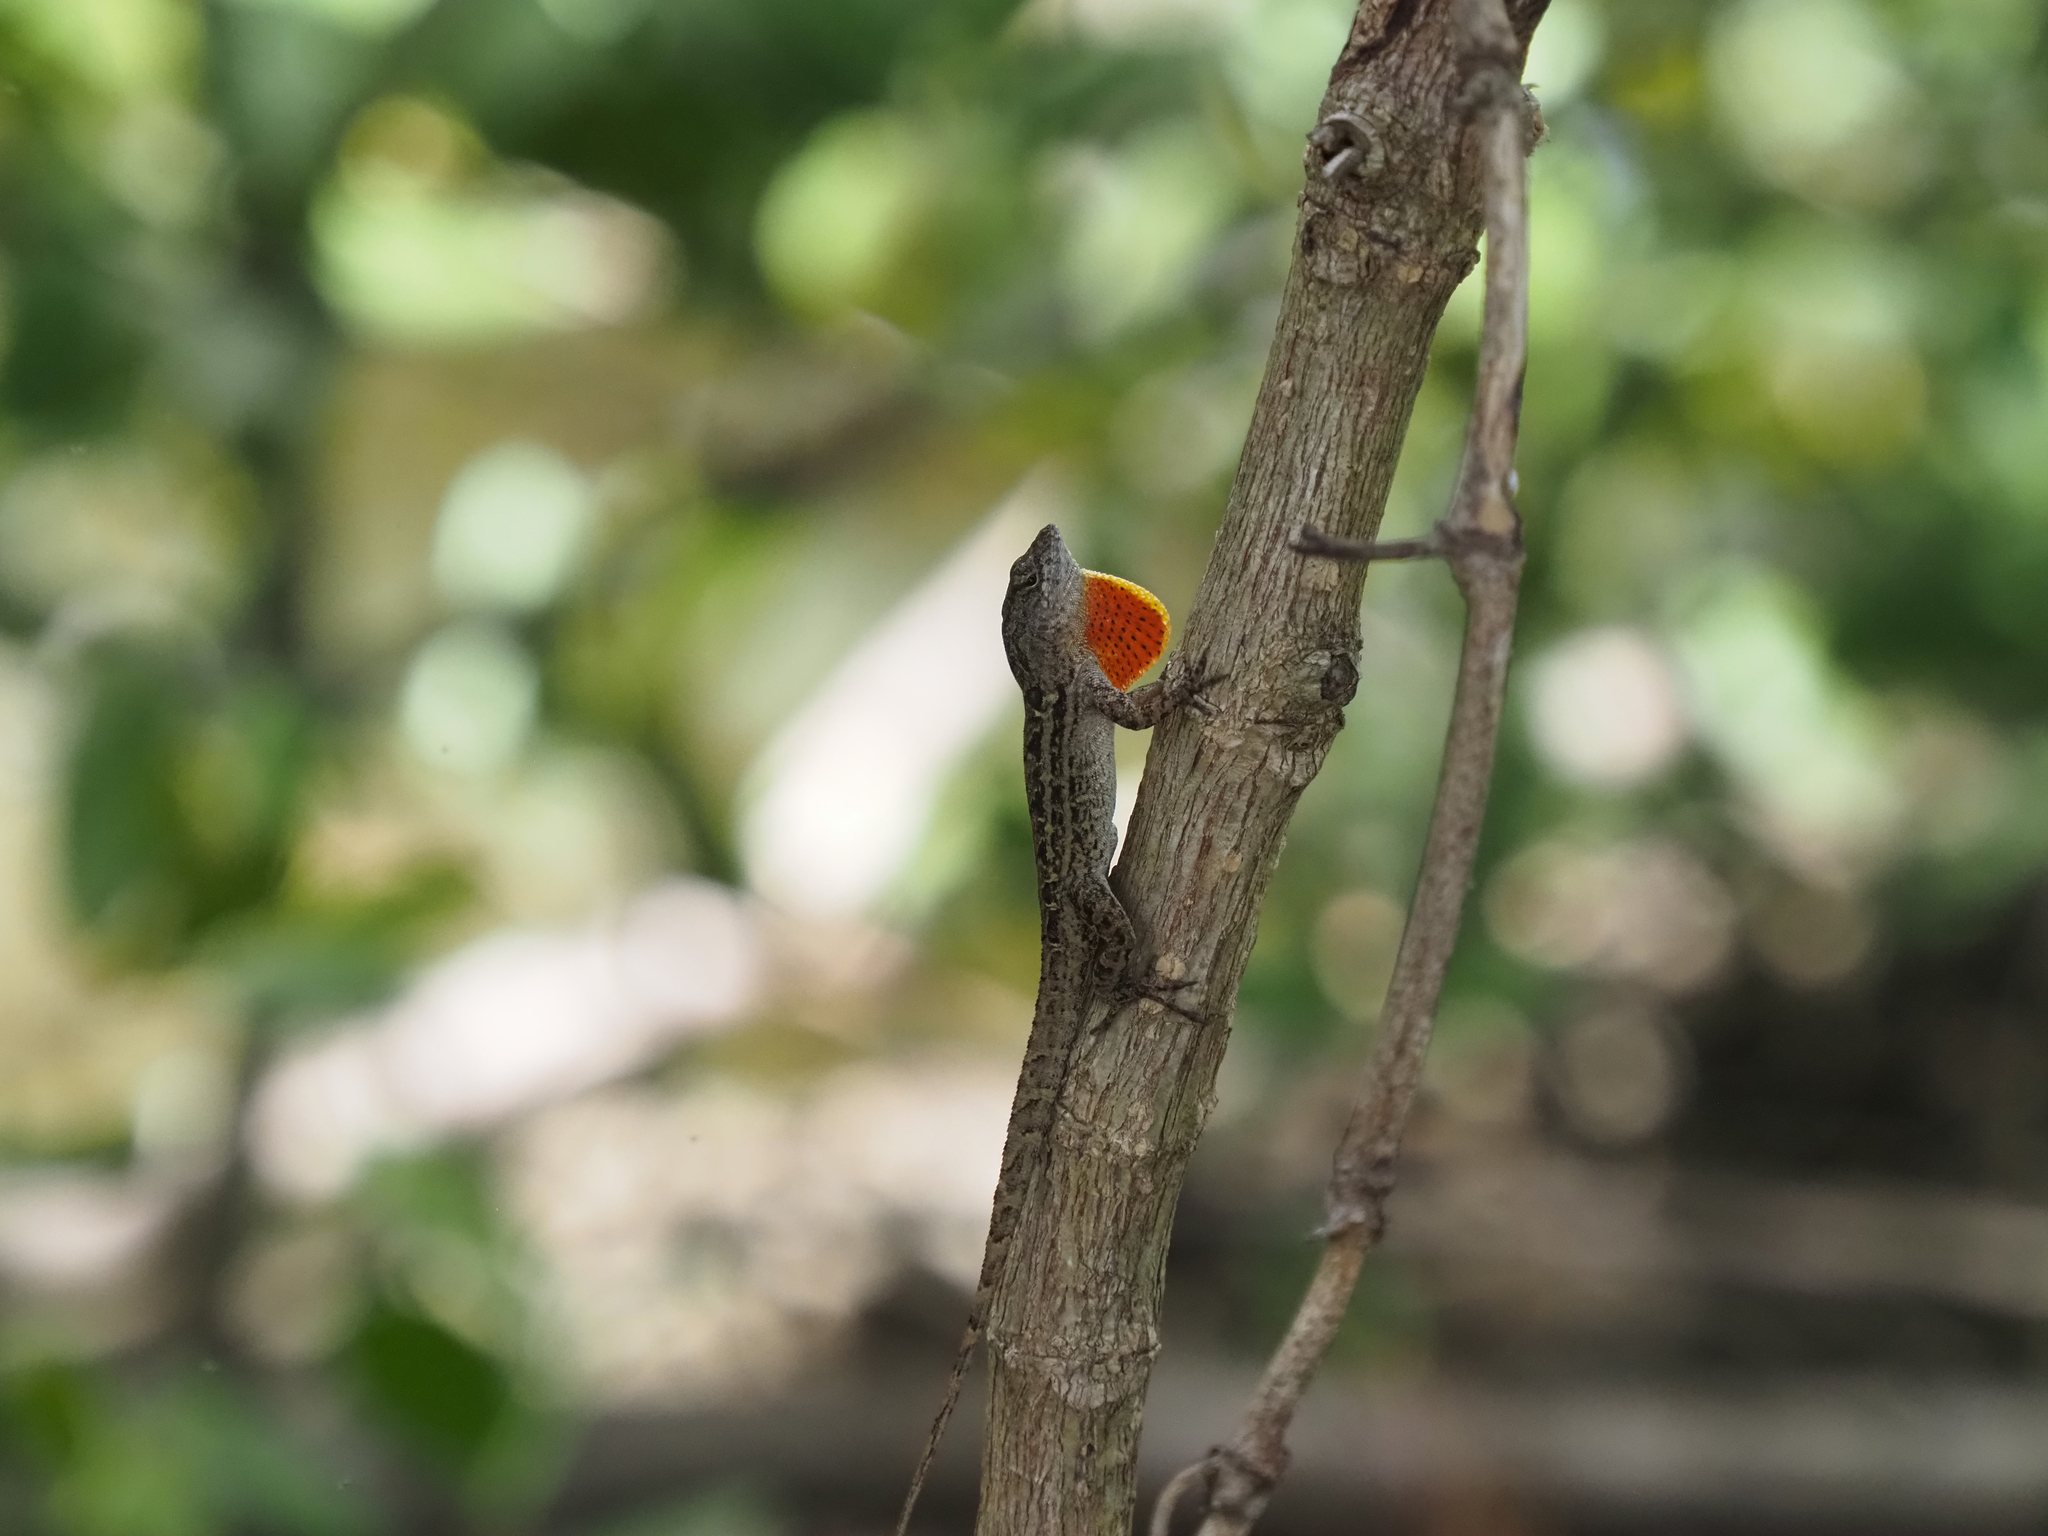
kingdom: Animalia
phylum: Chordata
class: Squamata
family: Dactyloidae
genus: Anolis
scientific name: Anolis sagrei
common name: Brown anole
